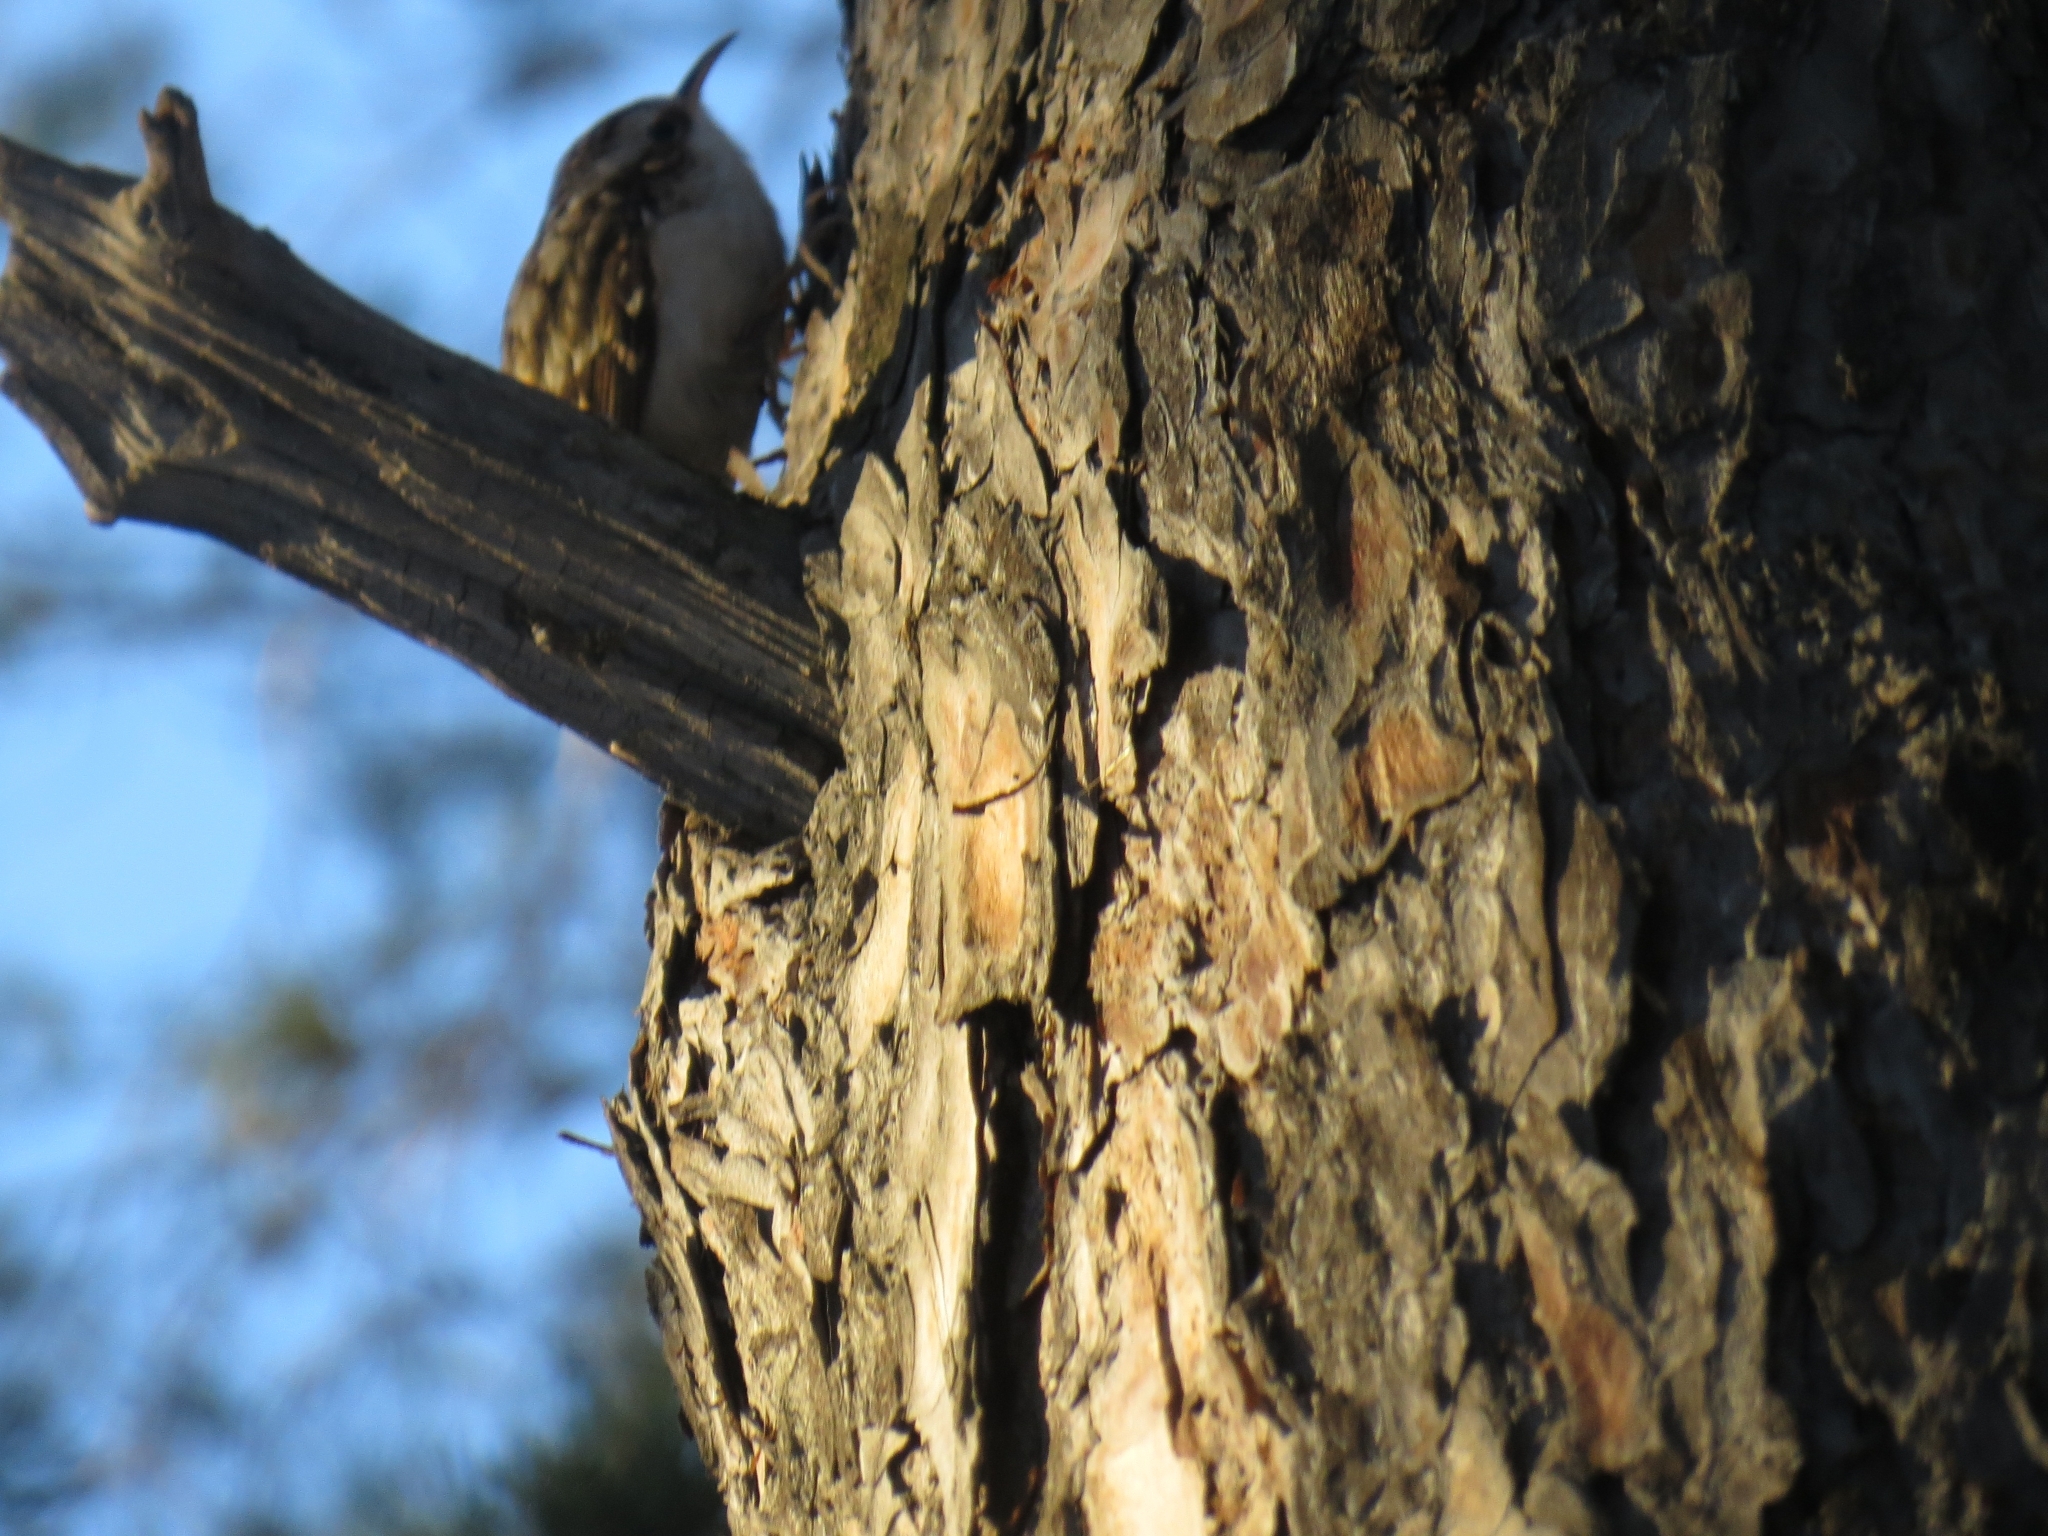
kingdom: Animalia
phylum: Chordata
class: Aves
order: Passeriformes
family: Certhiidae
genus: Certhia
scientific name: Certhia familiaris
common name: Eurasian treecreeper
